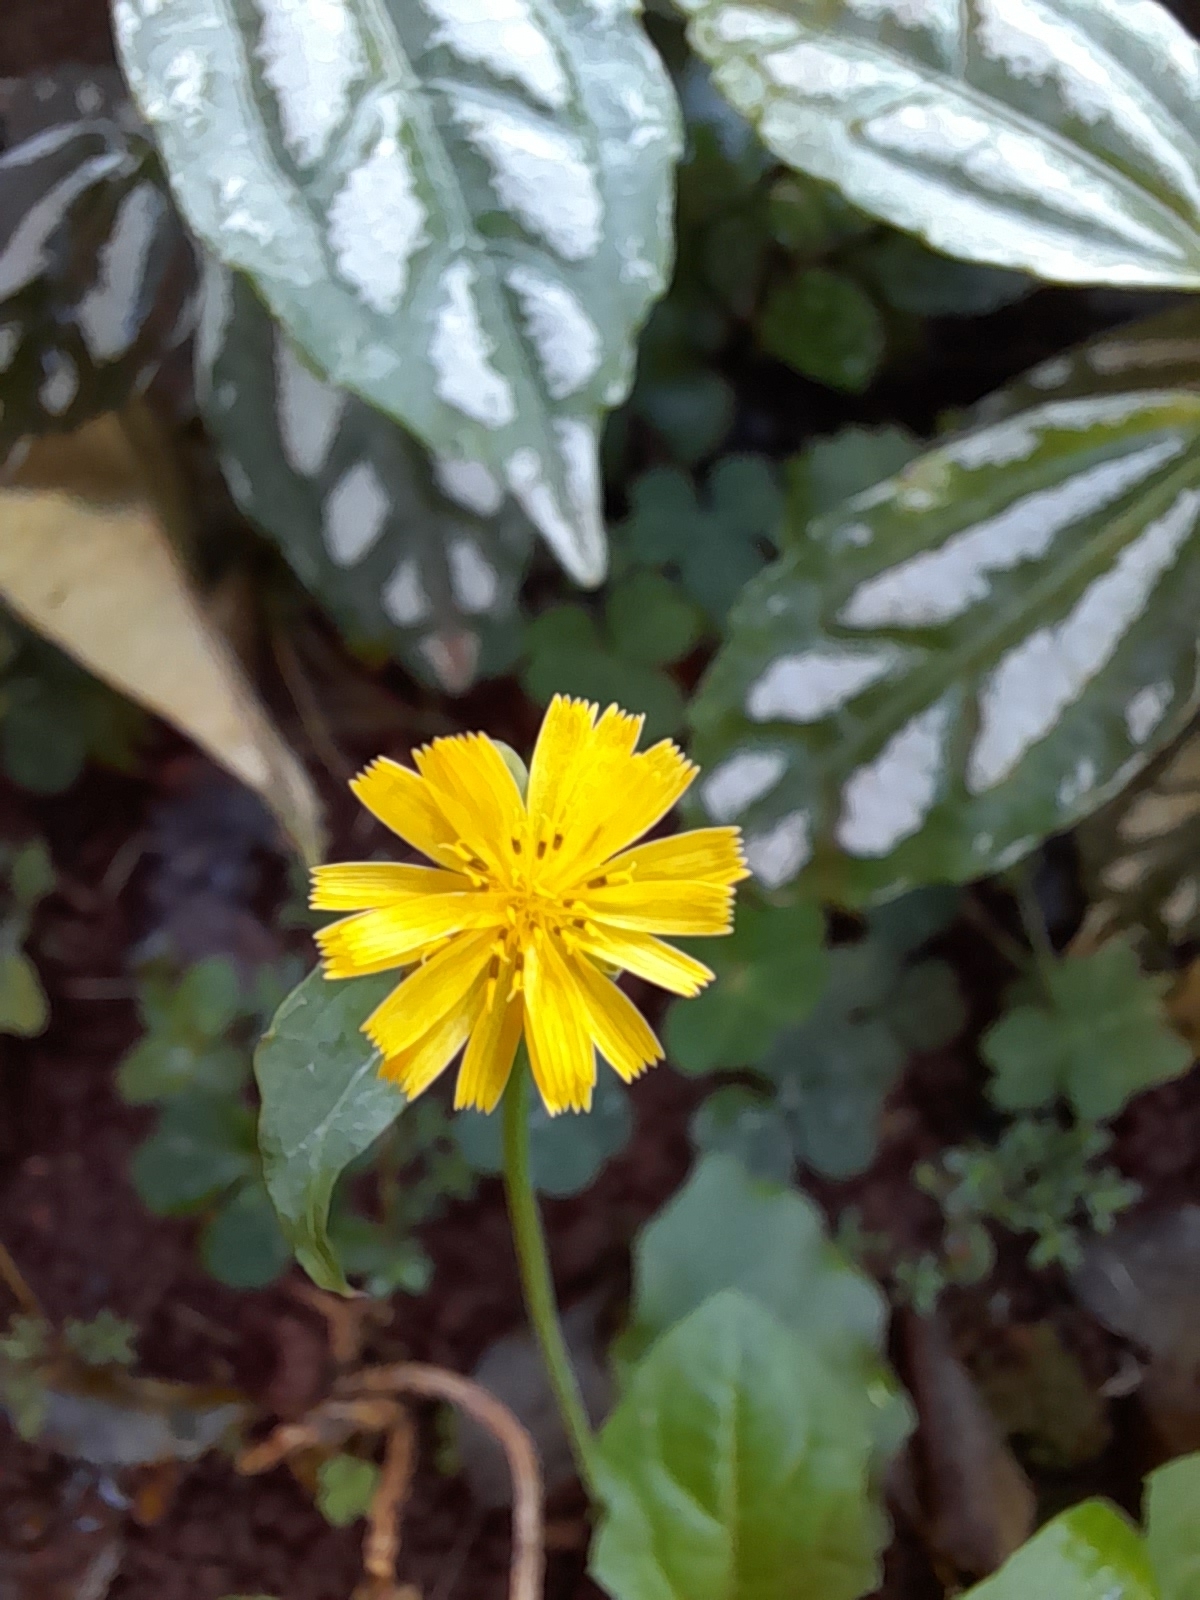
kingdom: Plantae
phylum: Tracheophyta
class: Magnoliopsida
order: Asterales
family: Asteraceae
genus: Youngia
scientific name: Youngia japonica
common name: Oriental false hawksbeard
